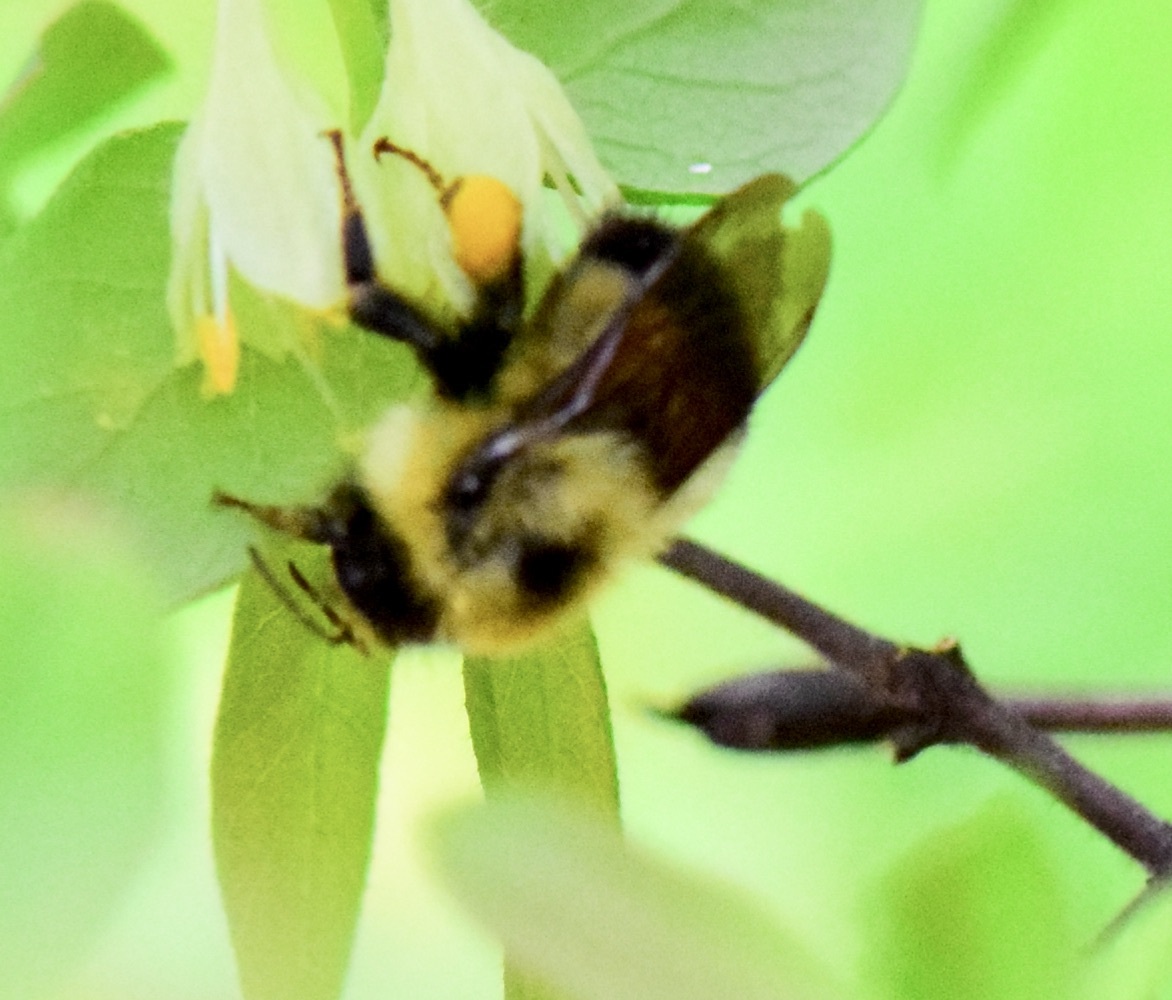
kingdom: Animalia
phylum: Arthropoda
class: Insecta
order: Hymenoptera
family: Apidae
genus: Pyrobombus
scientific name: Pyrobombus
